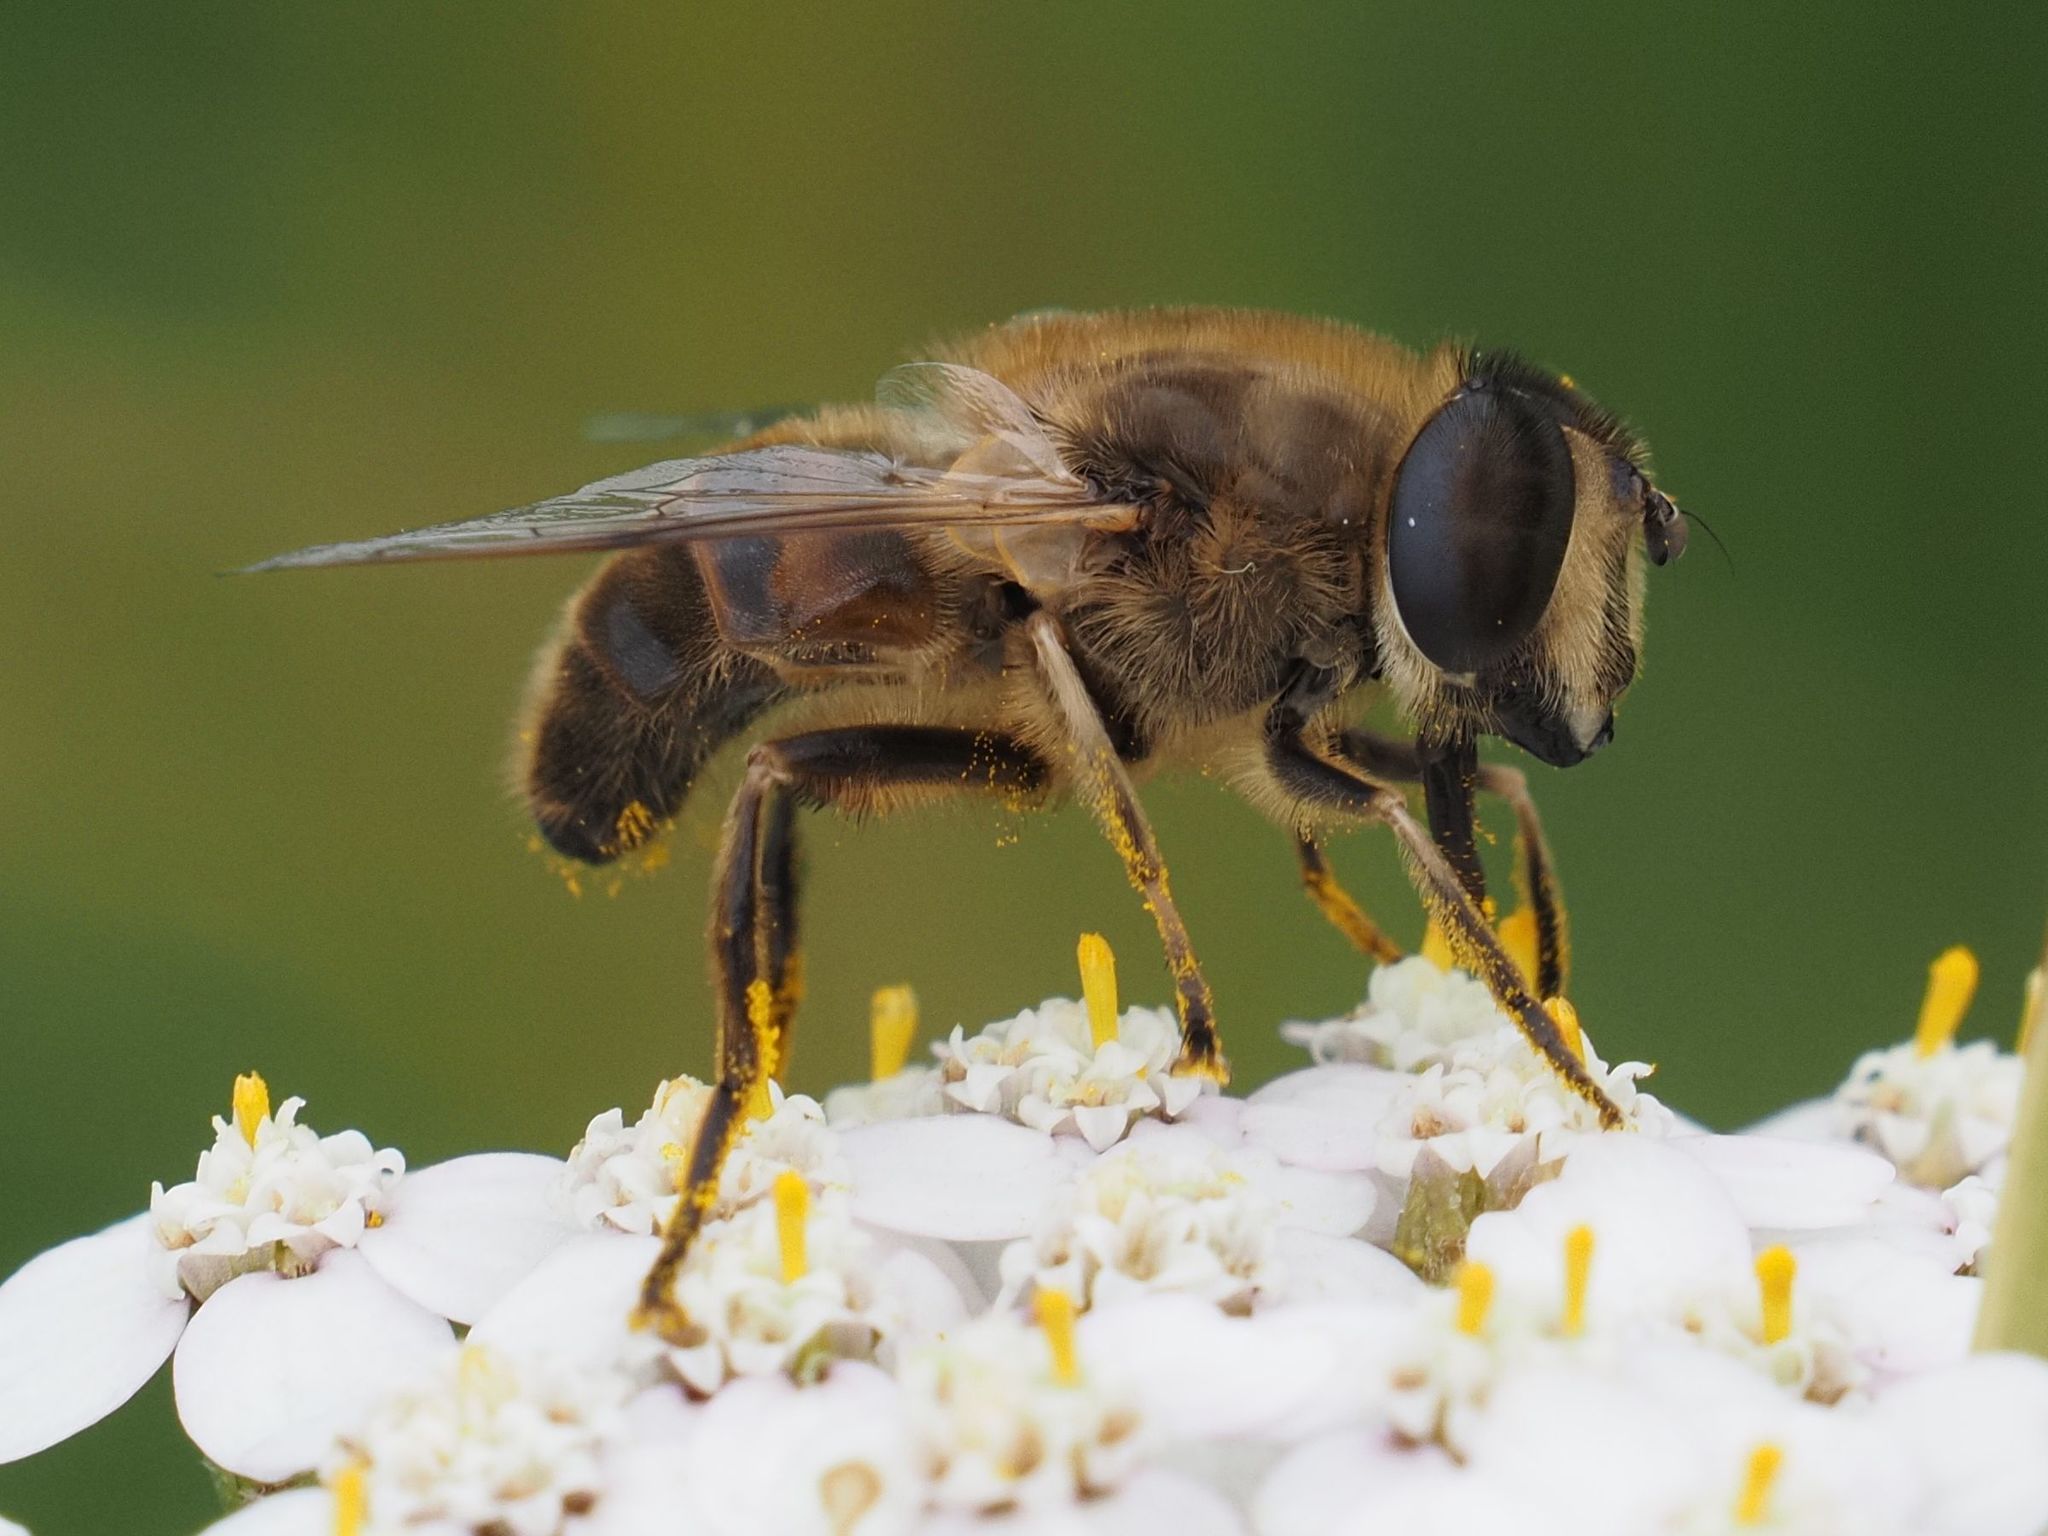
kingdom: Animalia
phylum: Arthropoda
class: Insecta
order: Diptera
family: Syrphidae
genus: Eristalis
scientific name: Eristalis tenax
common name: Drone fly
